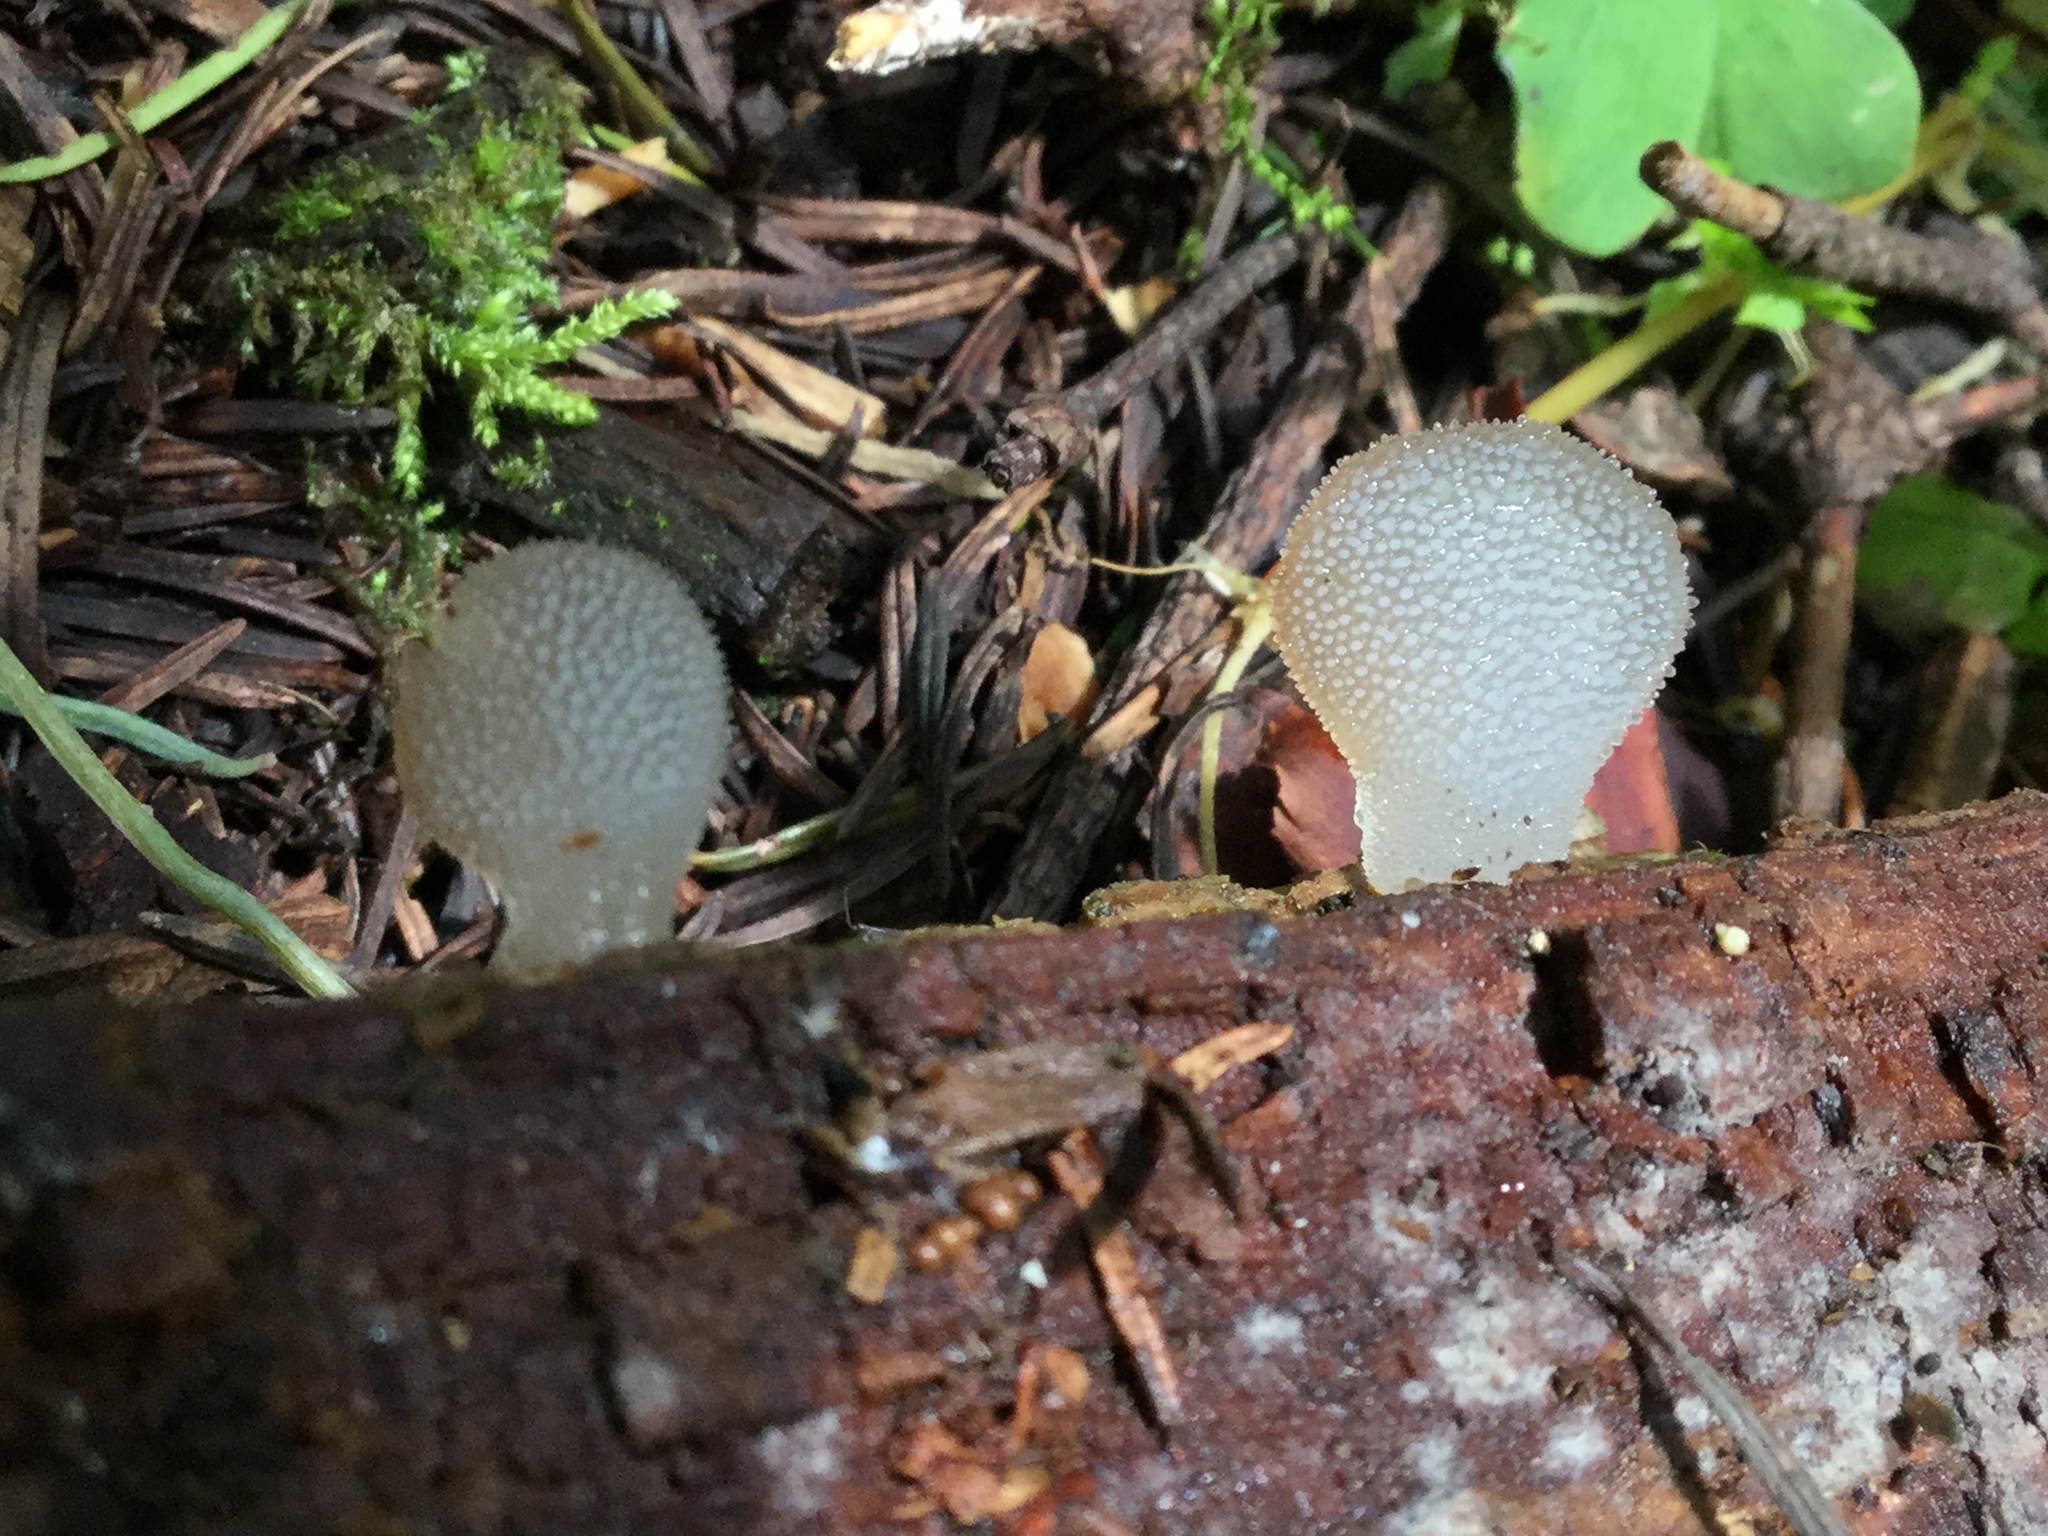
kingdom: Fungi
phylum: Basidiomycota
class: Agaricomycetes
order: Auriculariales
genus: Pseudohydnum
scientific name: Pseudohydnum gelatinosum
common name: Jelly tongue
